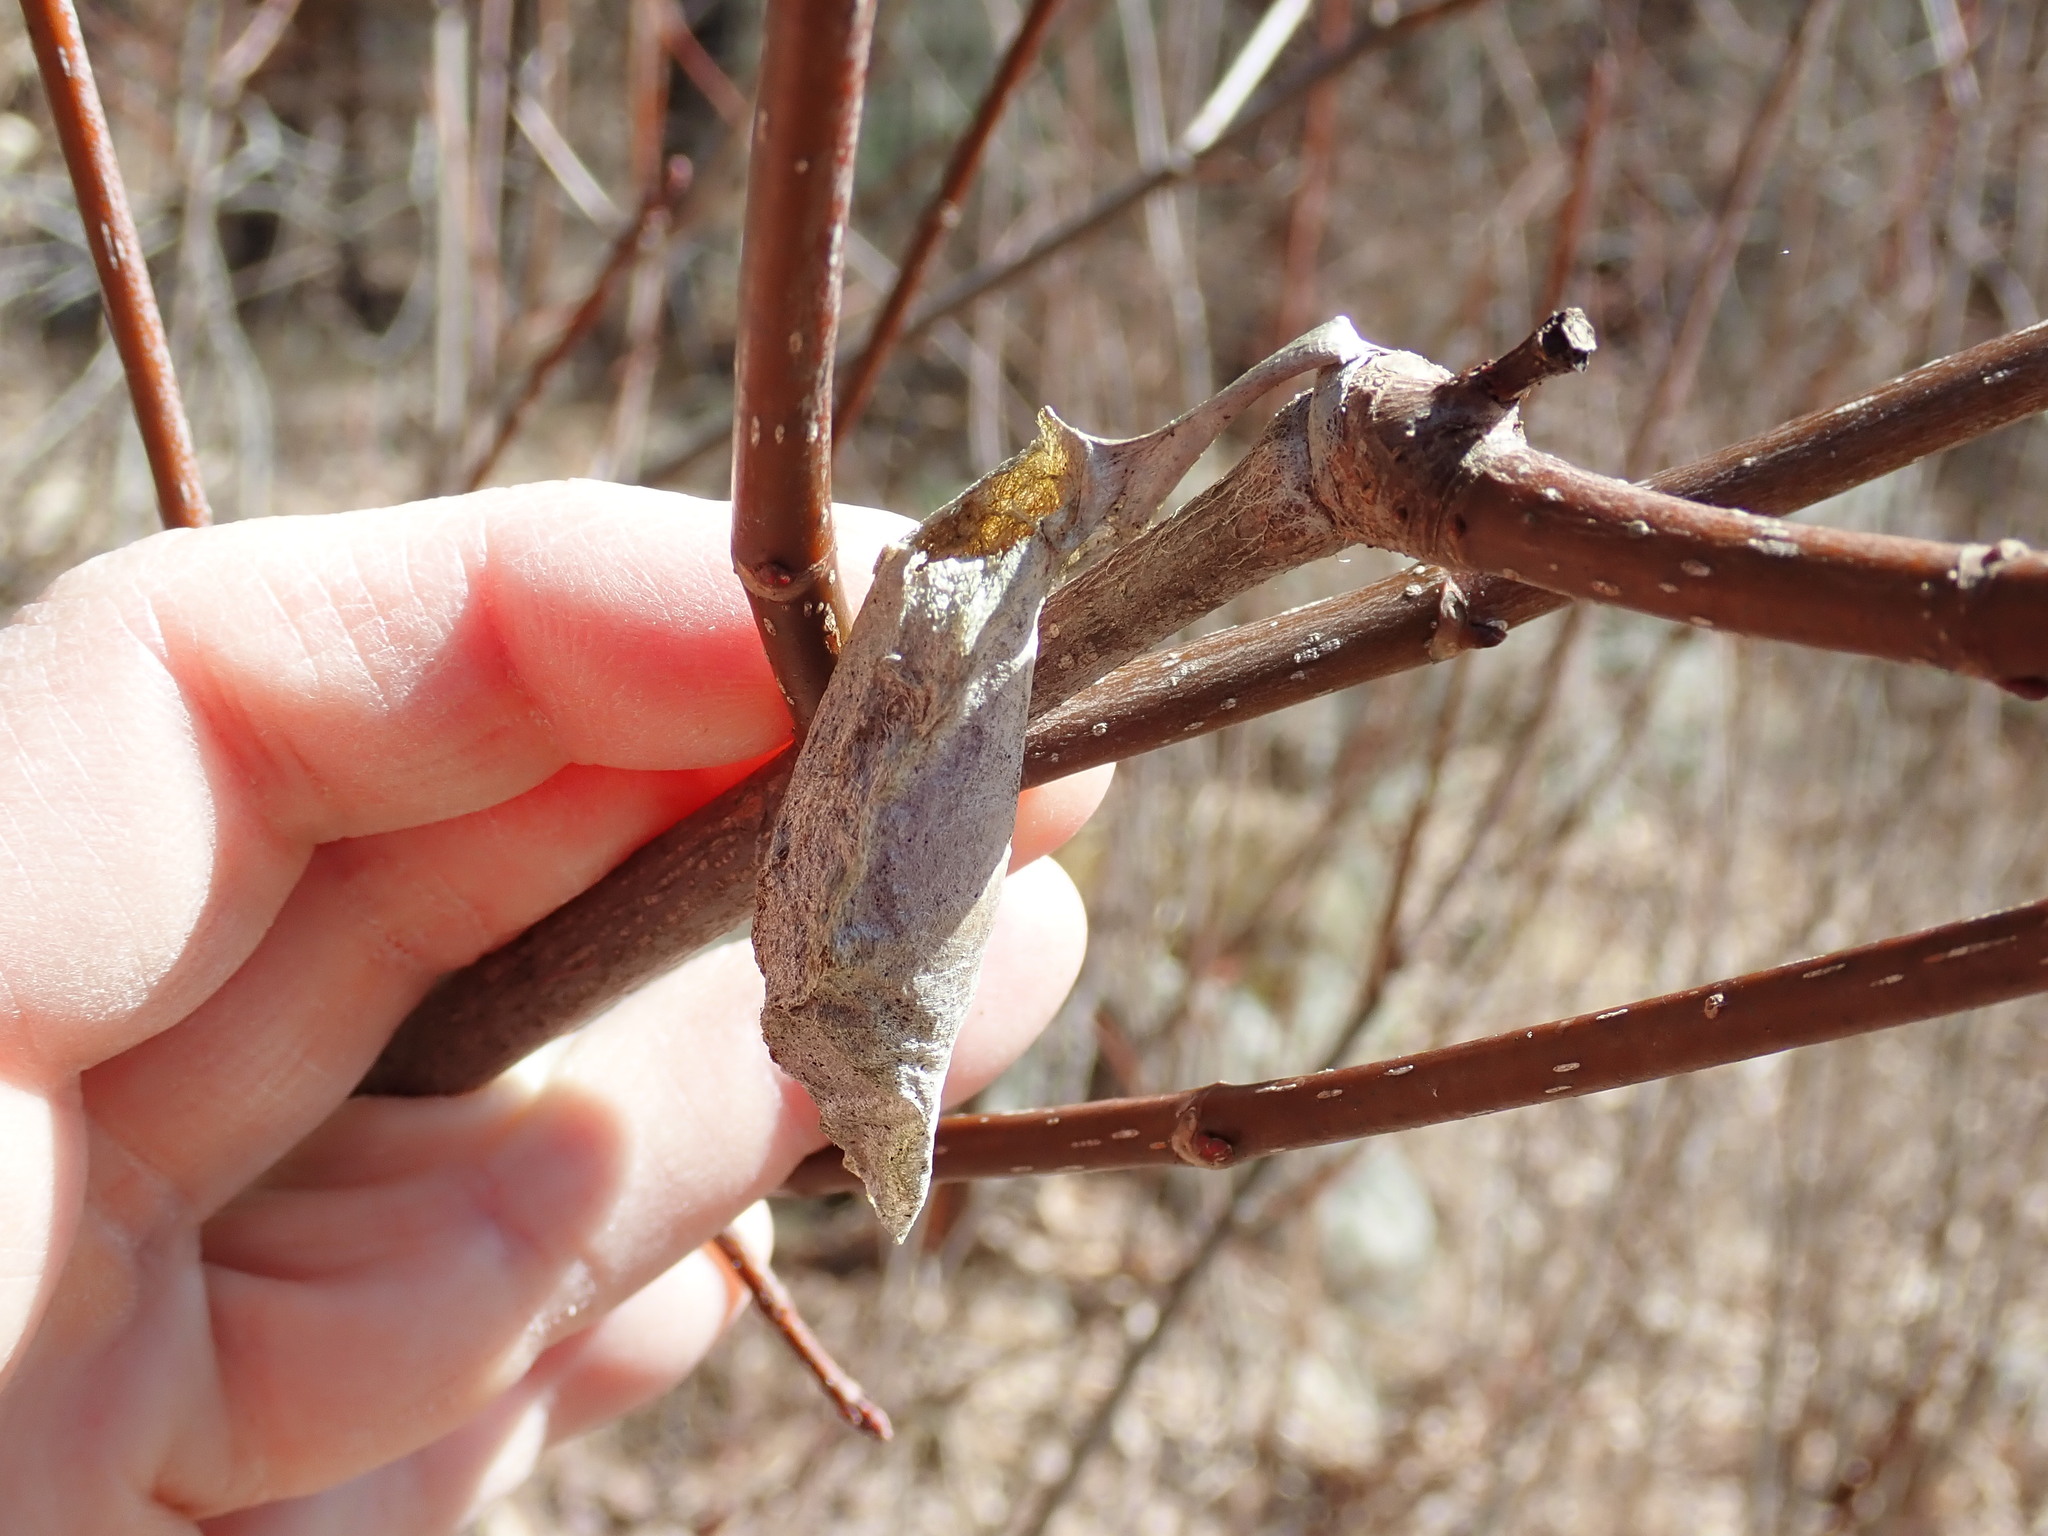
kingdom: Animalia
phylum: Arthropoda
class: Insecta
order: Lepidoptera
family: Saturniidae
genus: Callosamia
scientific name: Callosamia promethea
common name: Promethea silkmoth
